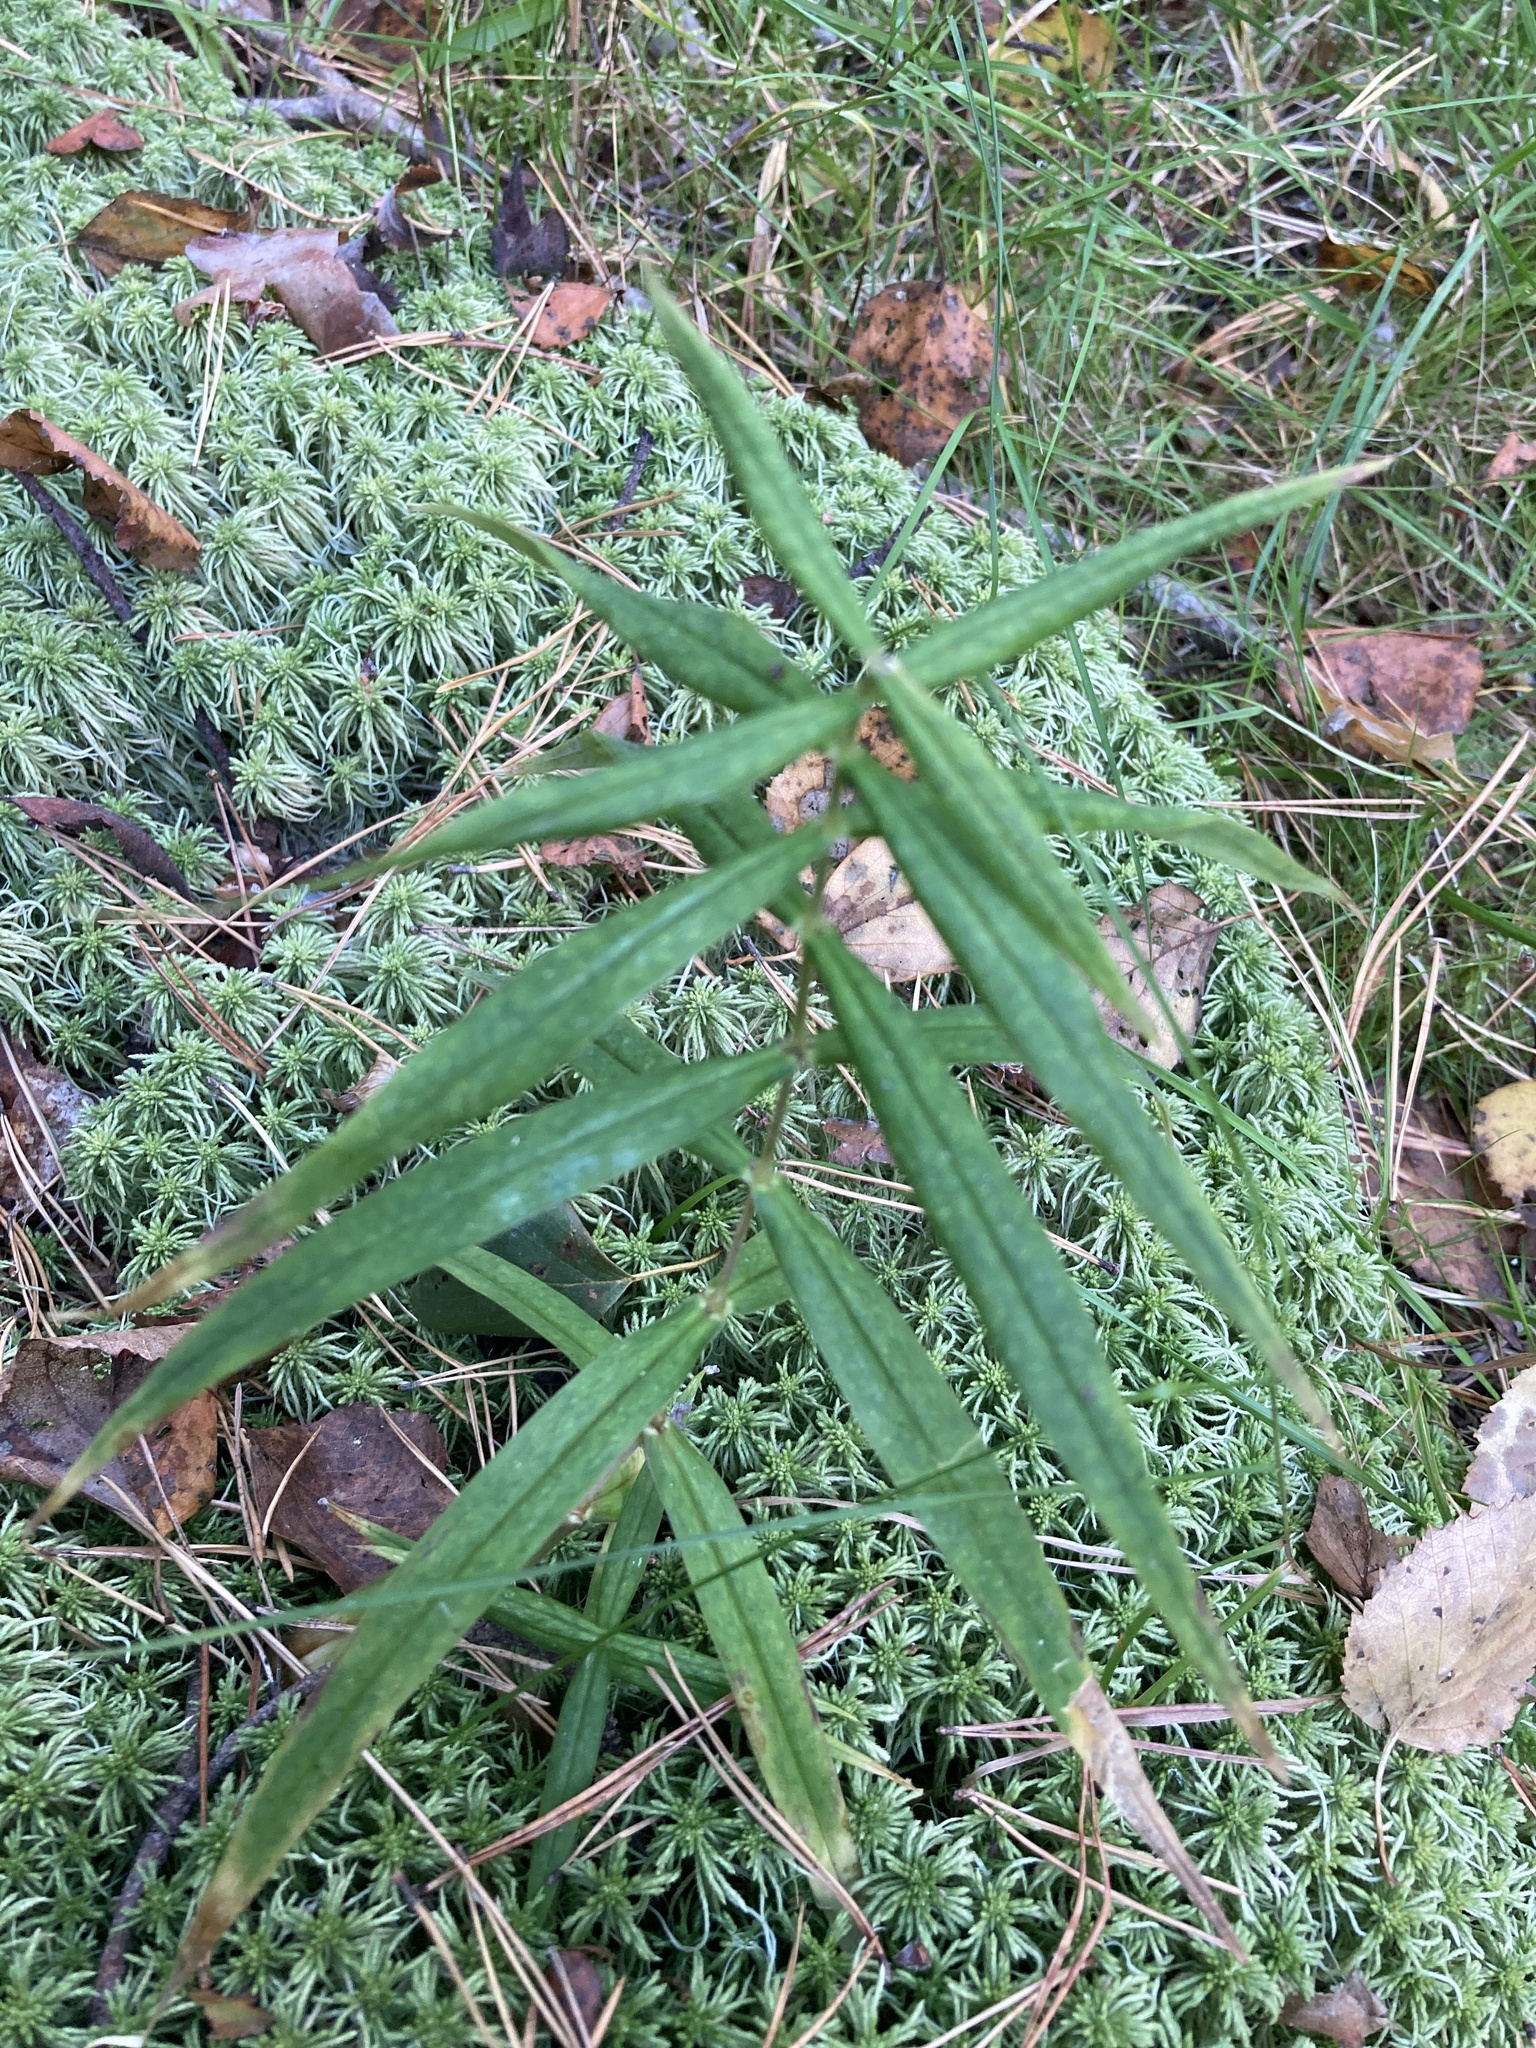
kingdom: Plantae
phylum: Tracheophyta
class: Magnoliopsida
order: Caryophyllales
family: Caryophyllaceae
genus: Rabelera
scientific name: Rabelera holostea
